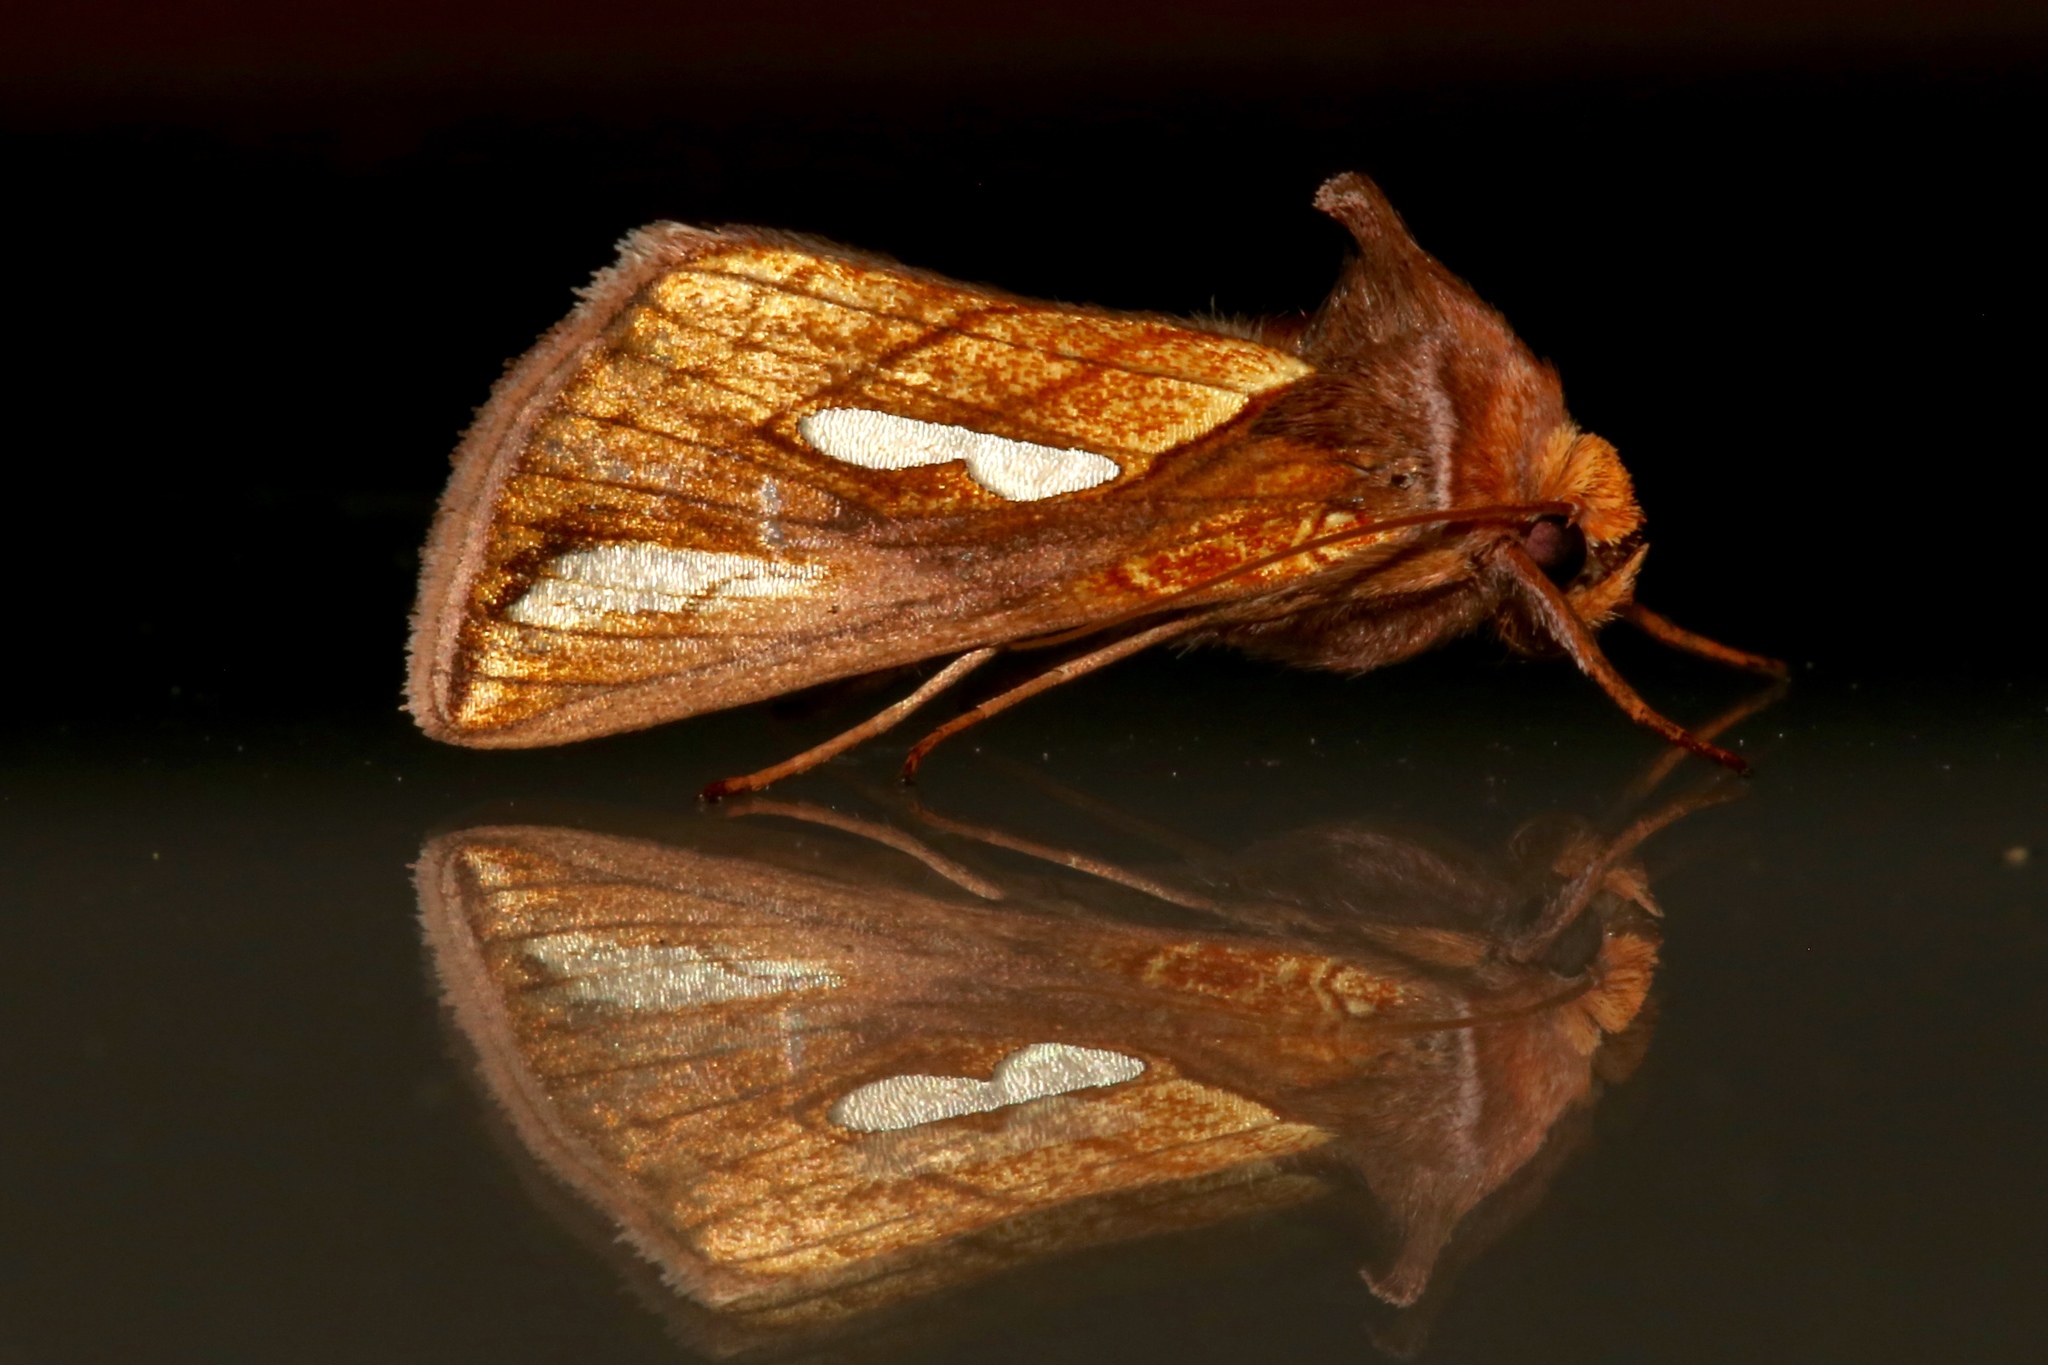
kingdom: Animalia
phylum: Arthropoda
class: Insecta
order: Lepidoptera
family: Noctuidae
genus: Plusia
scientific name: Plusia contexta
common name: Connected looper moth
